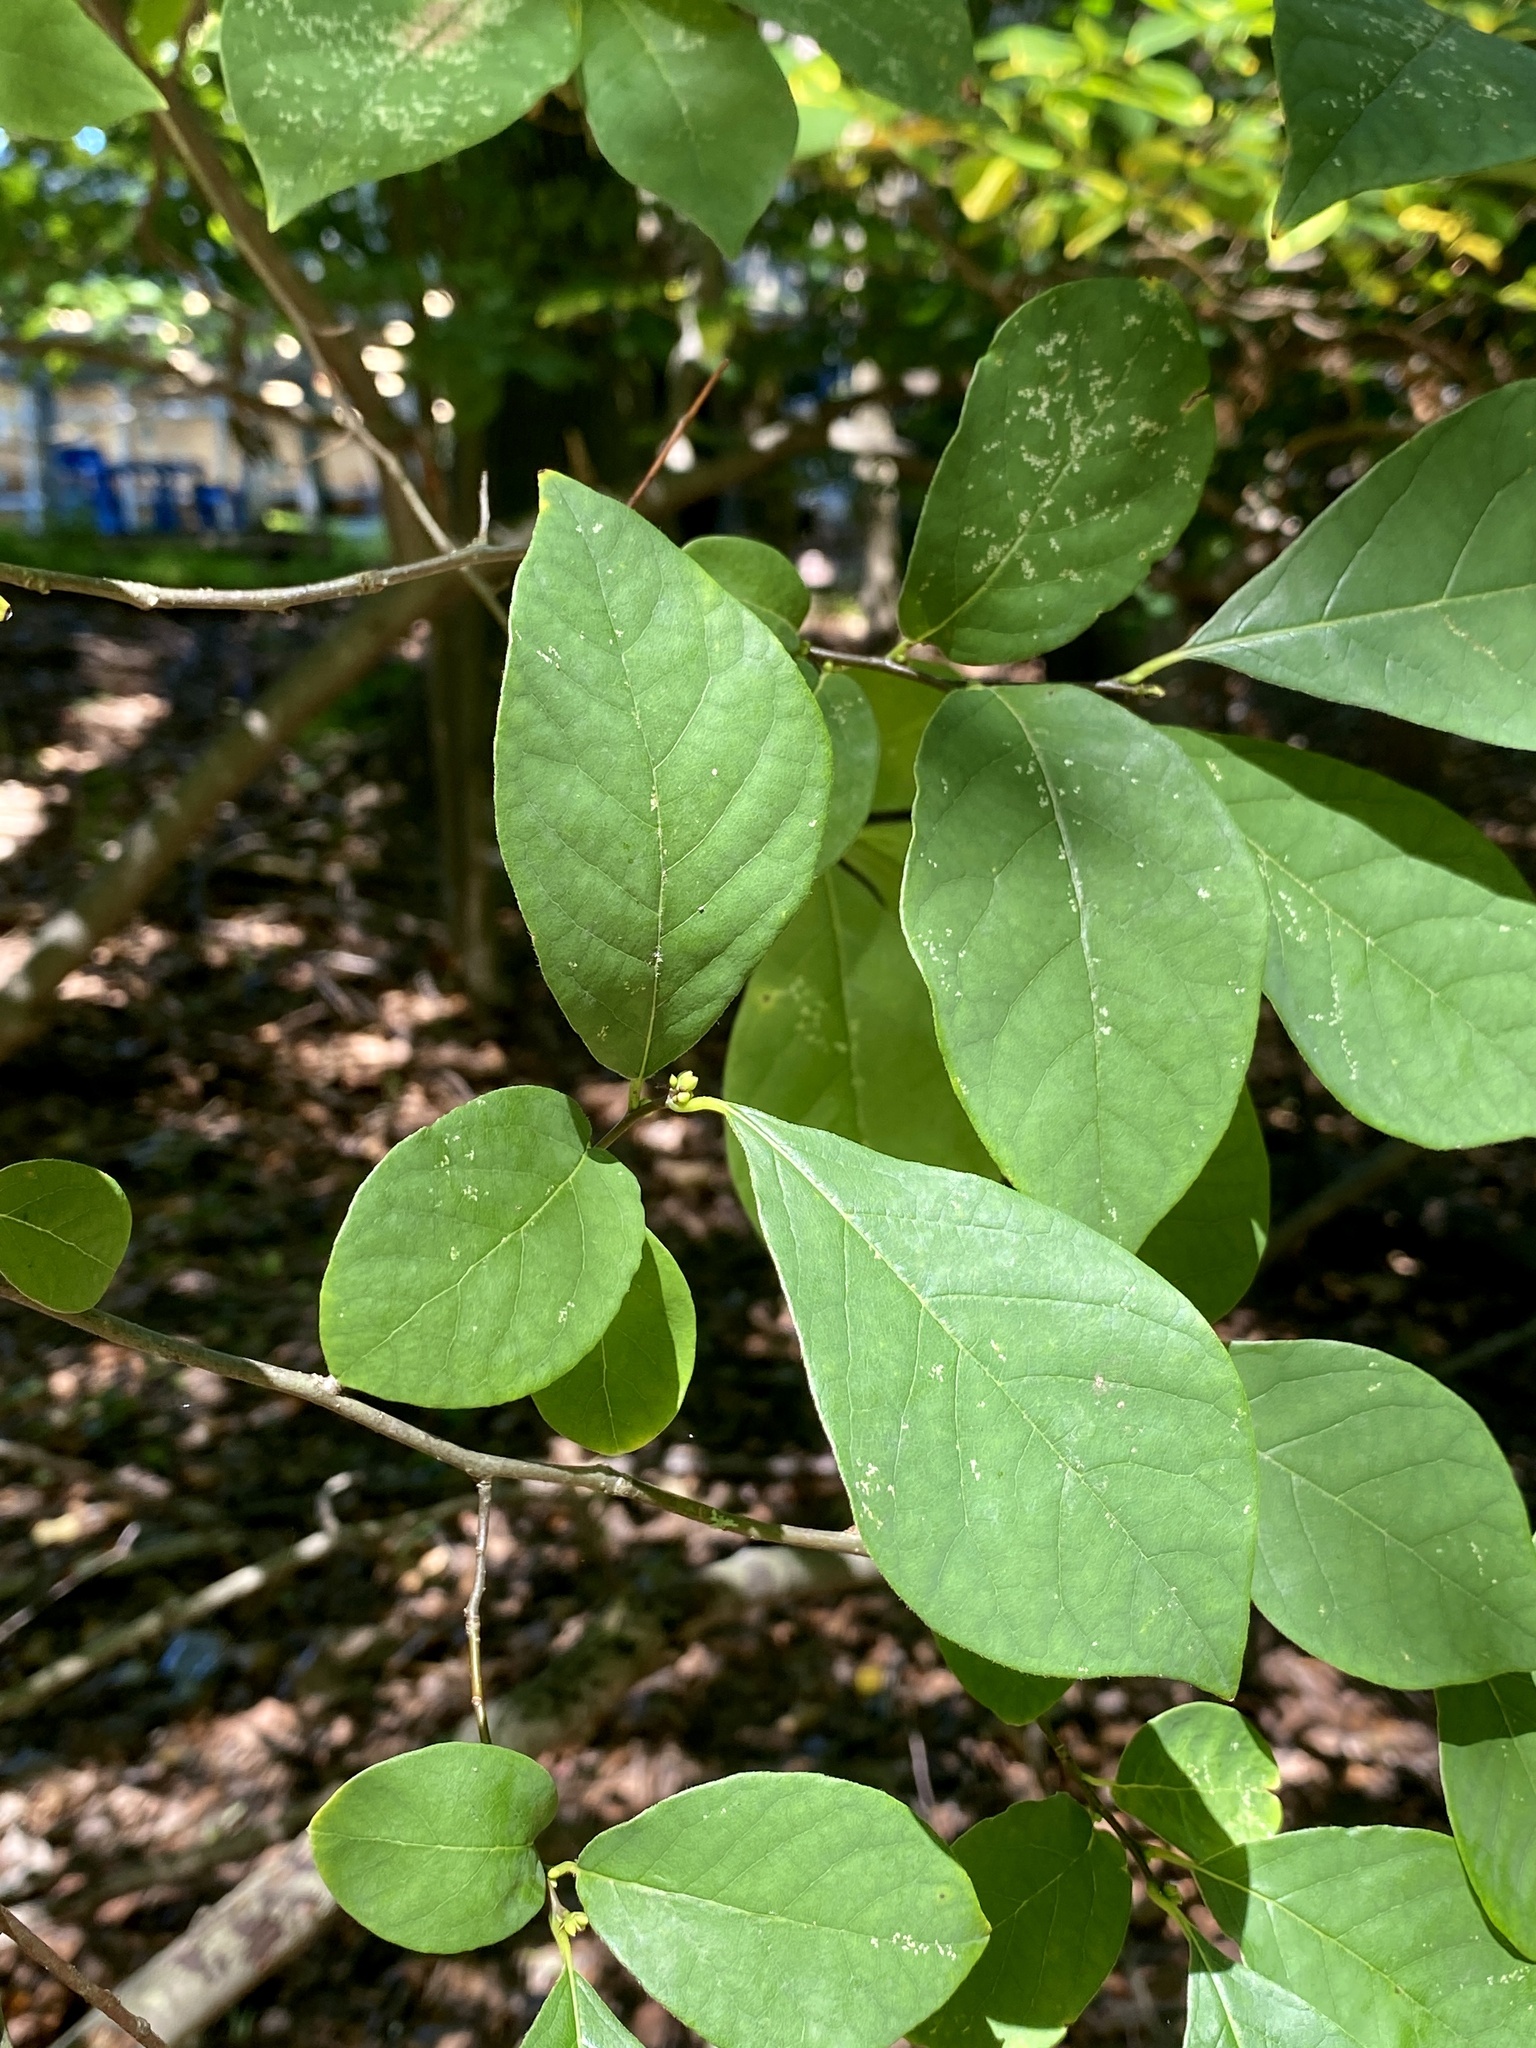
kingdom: Plantae
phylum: Tracheophyta
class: Magnoliopsida
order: Laurales
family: Lauraceae
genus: Lindera
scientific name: Lindera benzoin
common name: Spicebush
